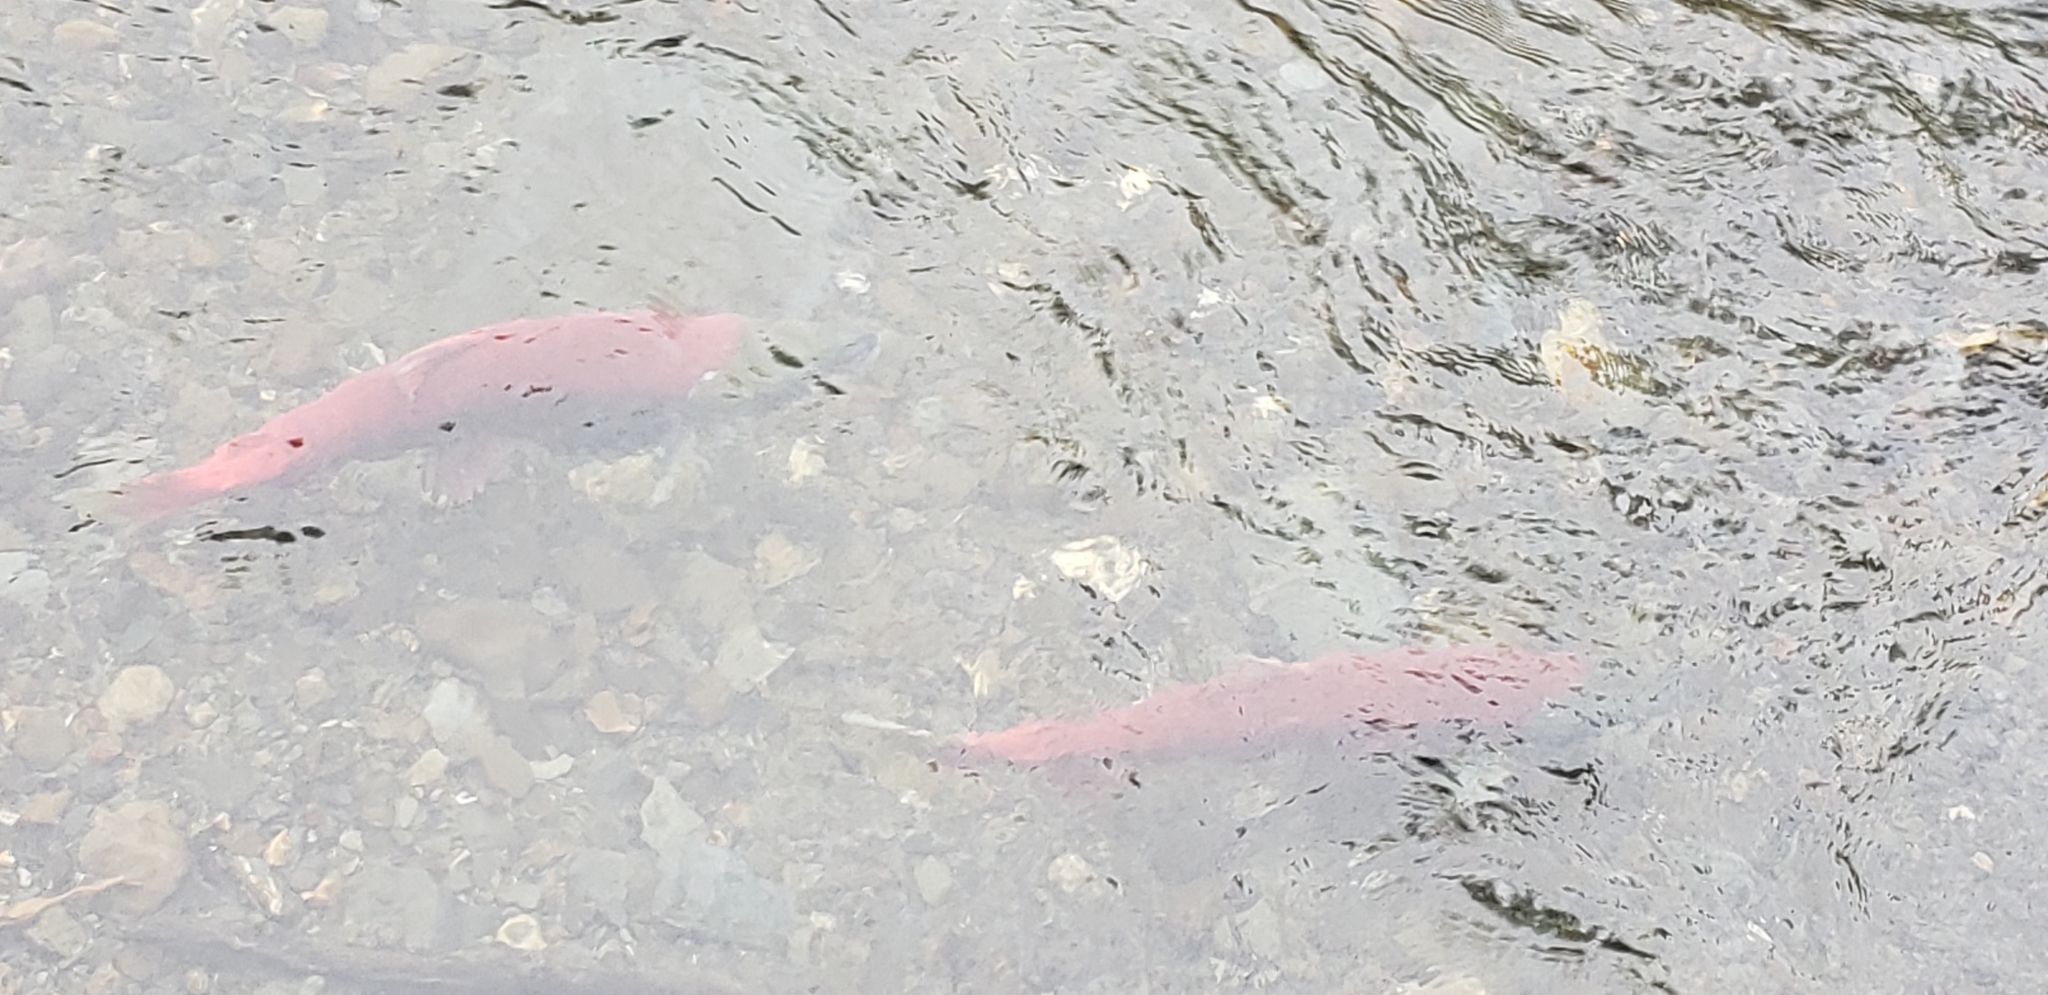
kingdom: Animalia
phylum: Chordata
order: Salmoniformes
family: Salmonidae
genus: Oncorhynchus
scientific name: Oncorhynchus nerka
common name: Sockeye salmon
